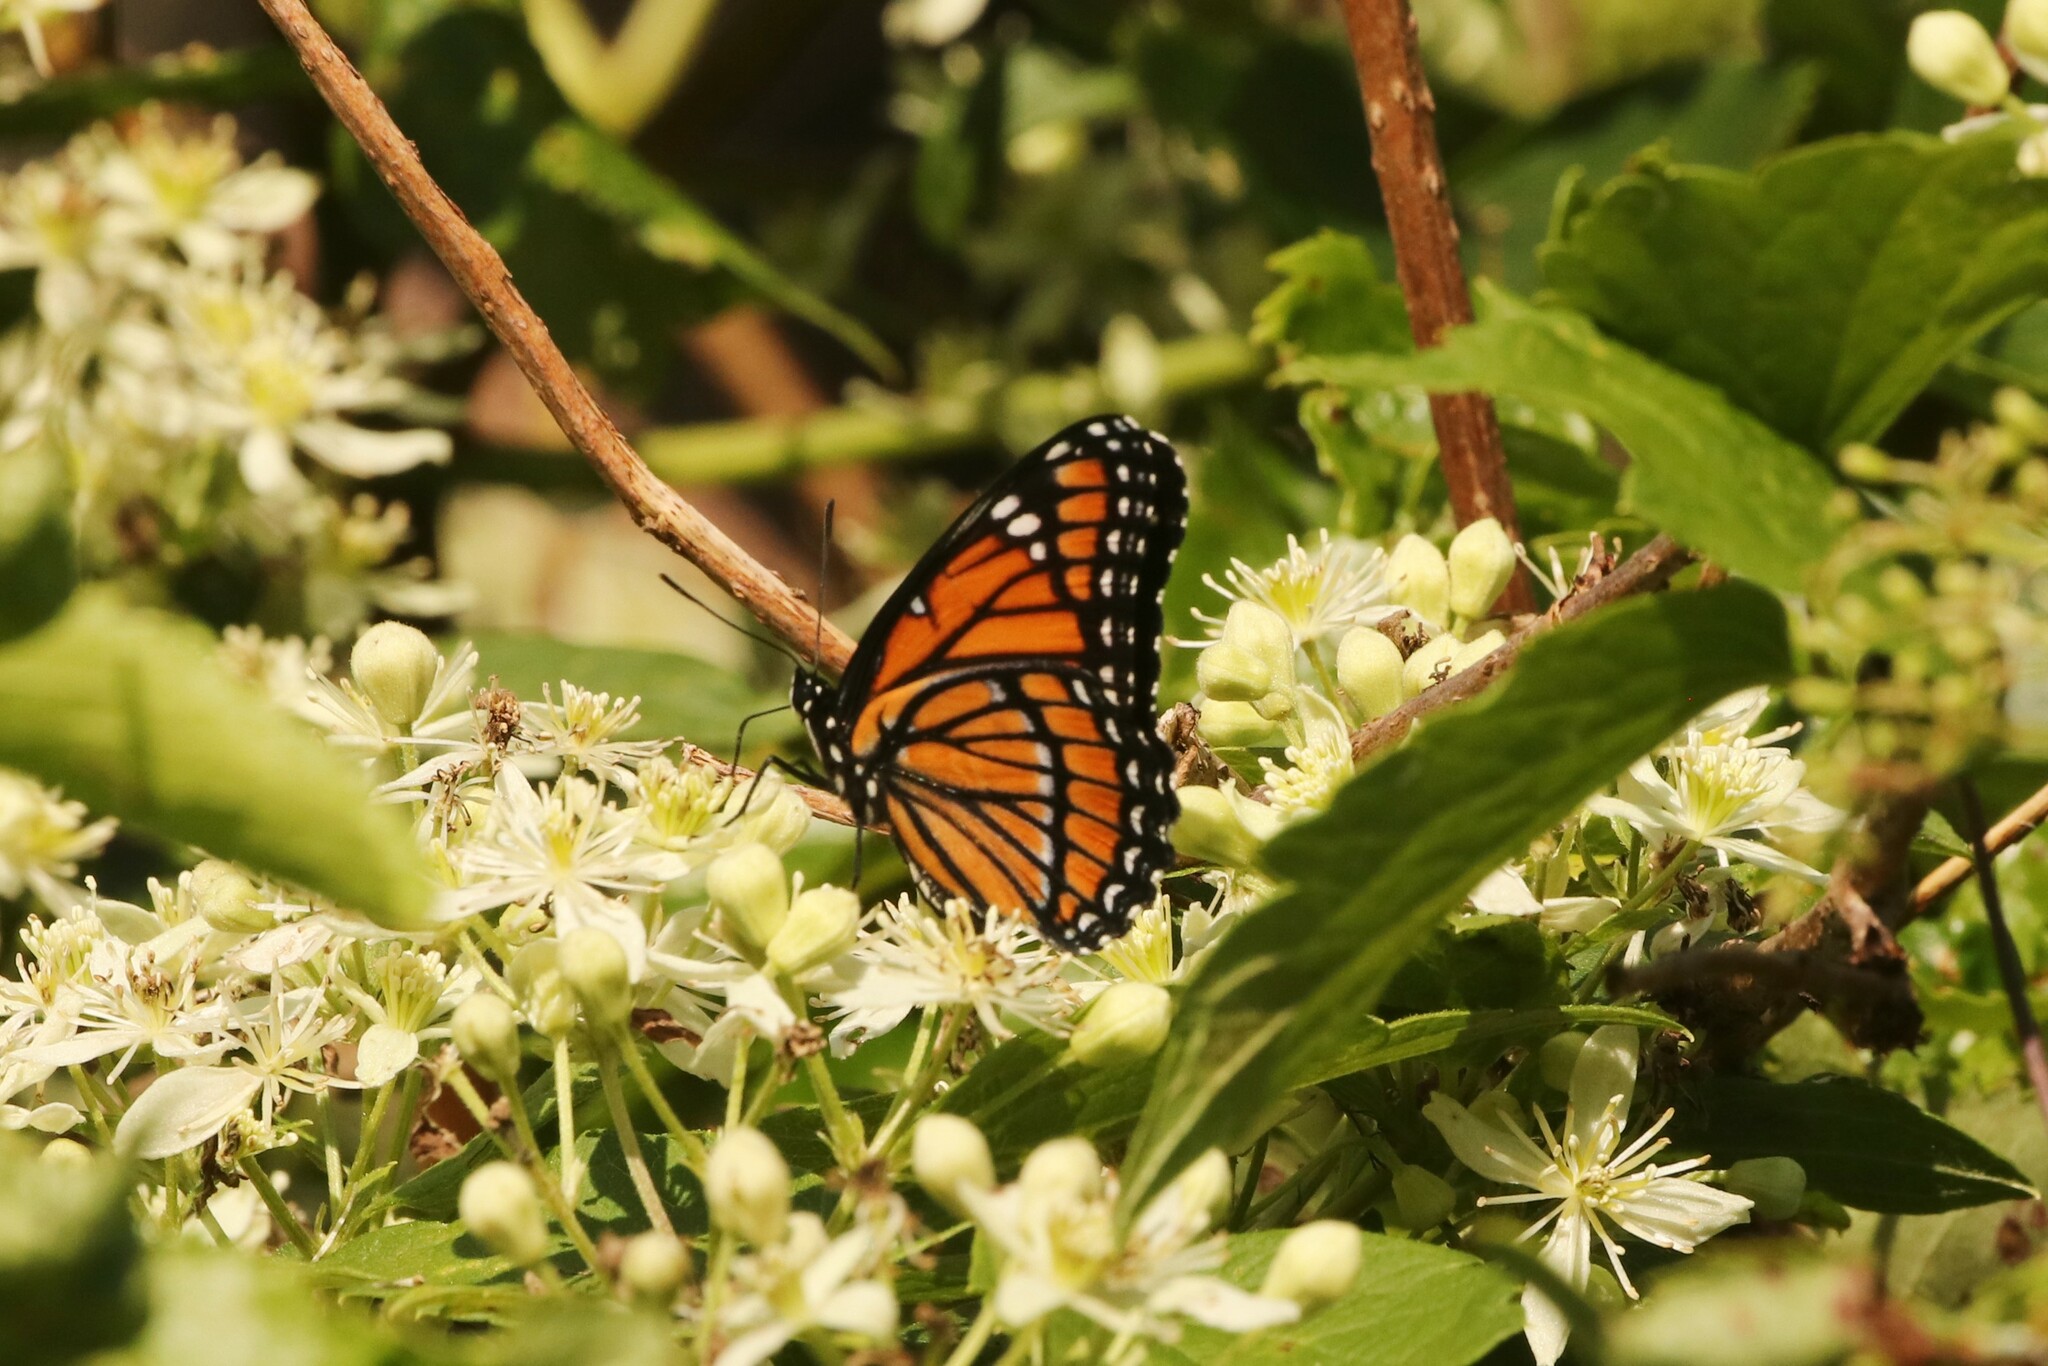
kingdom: Animalia
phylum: Arthropoda
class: Insecta
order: Lepidoptera
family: Nymphalidae
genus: Limenitis
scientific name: Limenitis archippus
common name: Viceroy
